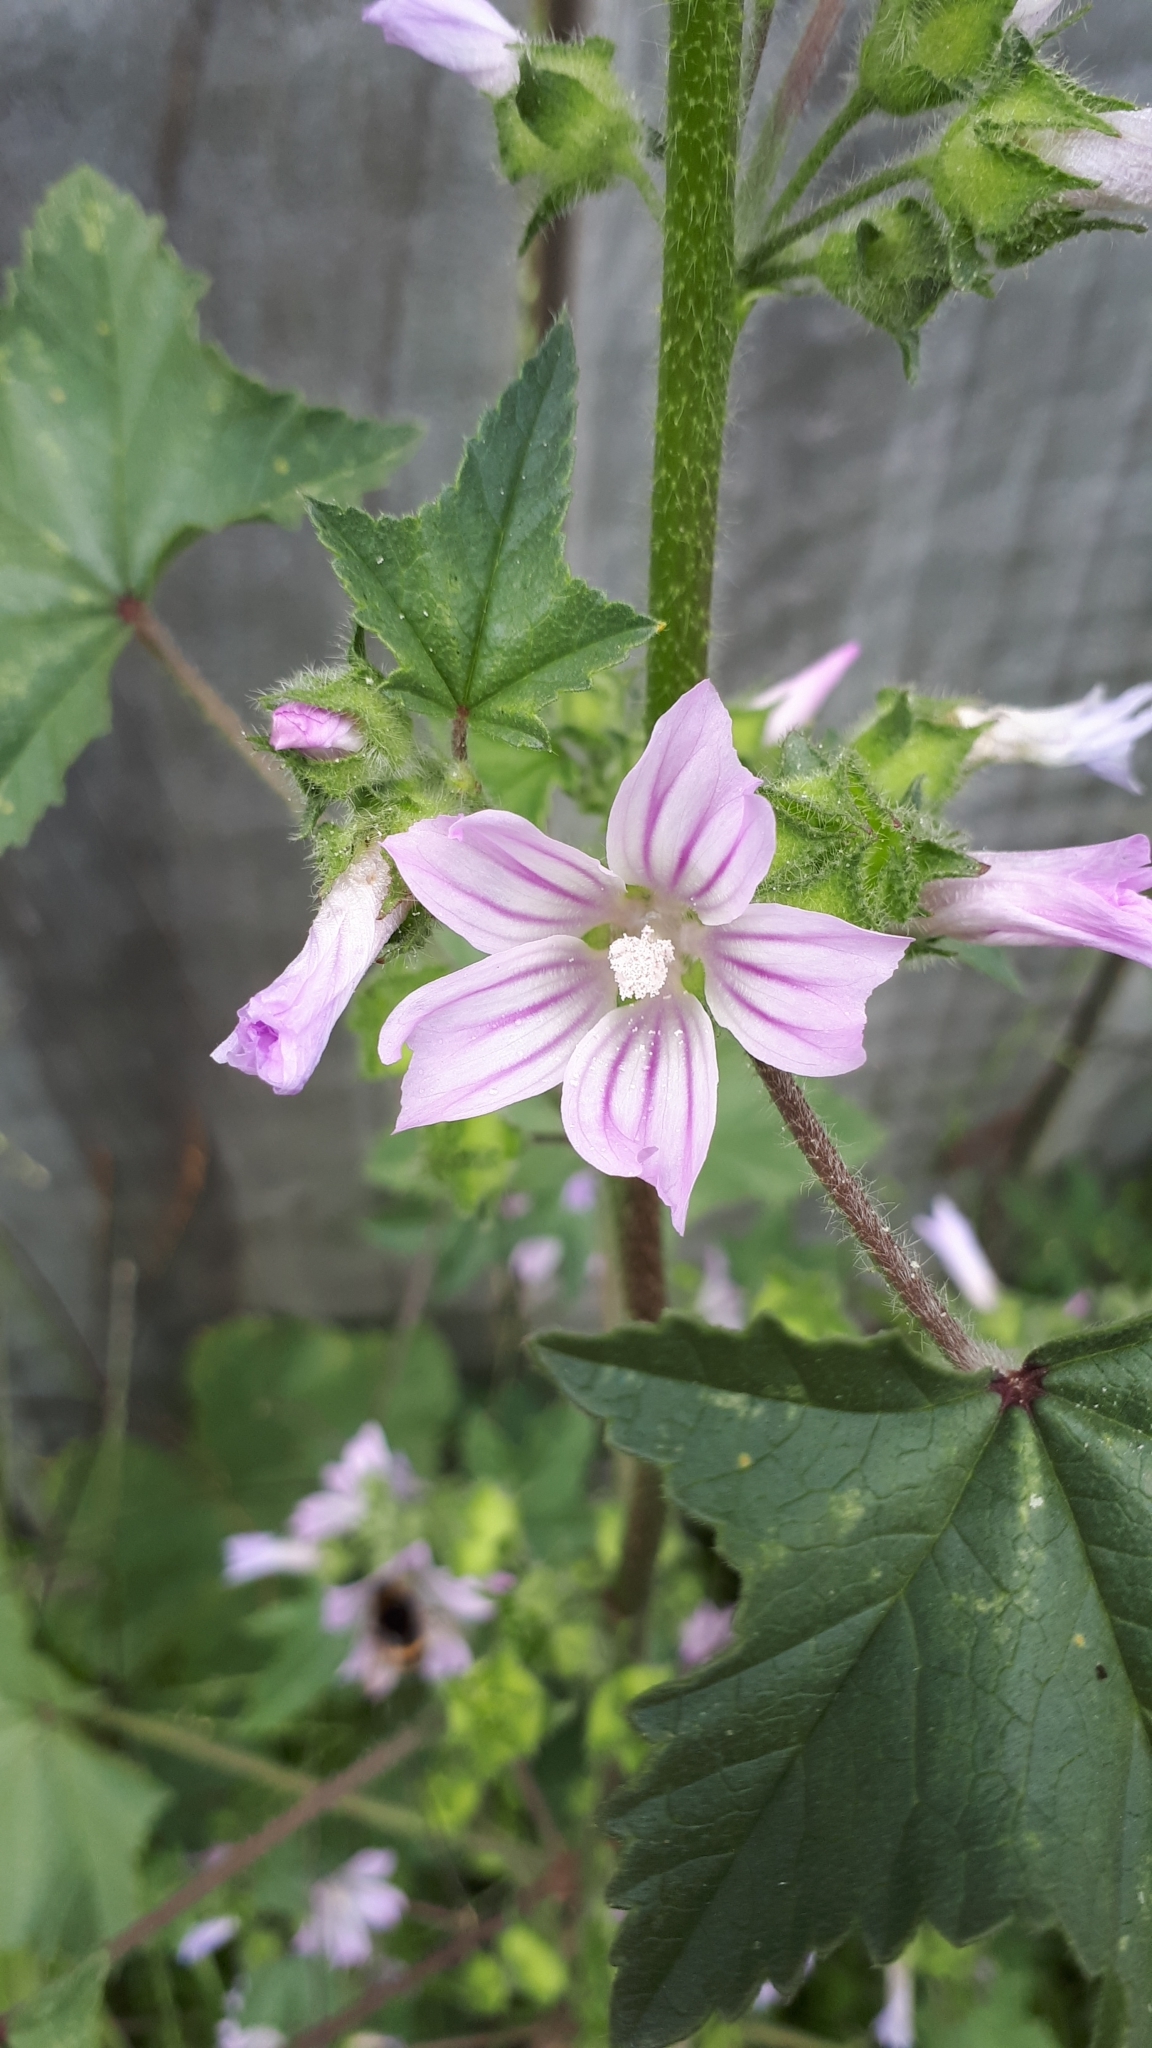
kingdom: Plantae
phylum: Tracheophyta
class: Magnoliopsida
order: Malvales
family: Malvaceae
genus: Malva
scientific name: Malva sylvestris
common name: Common mallow
